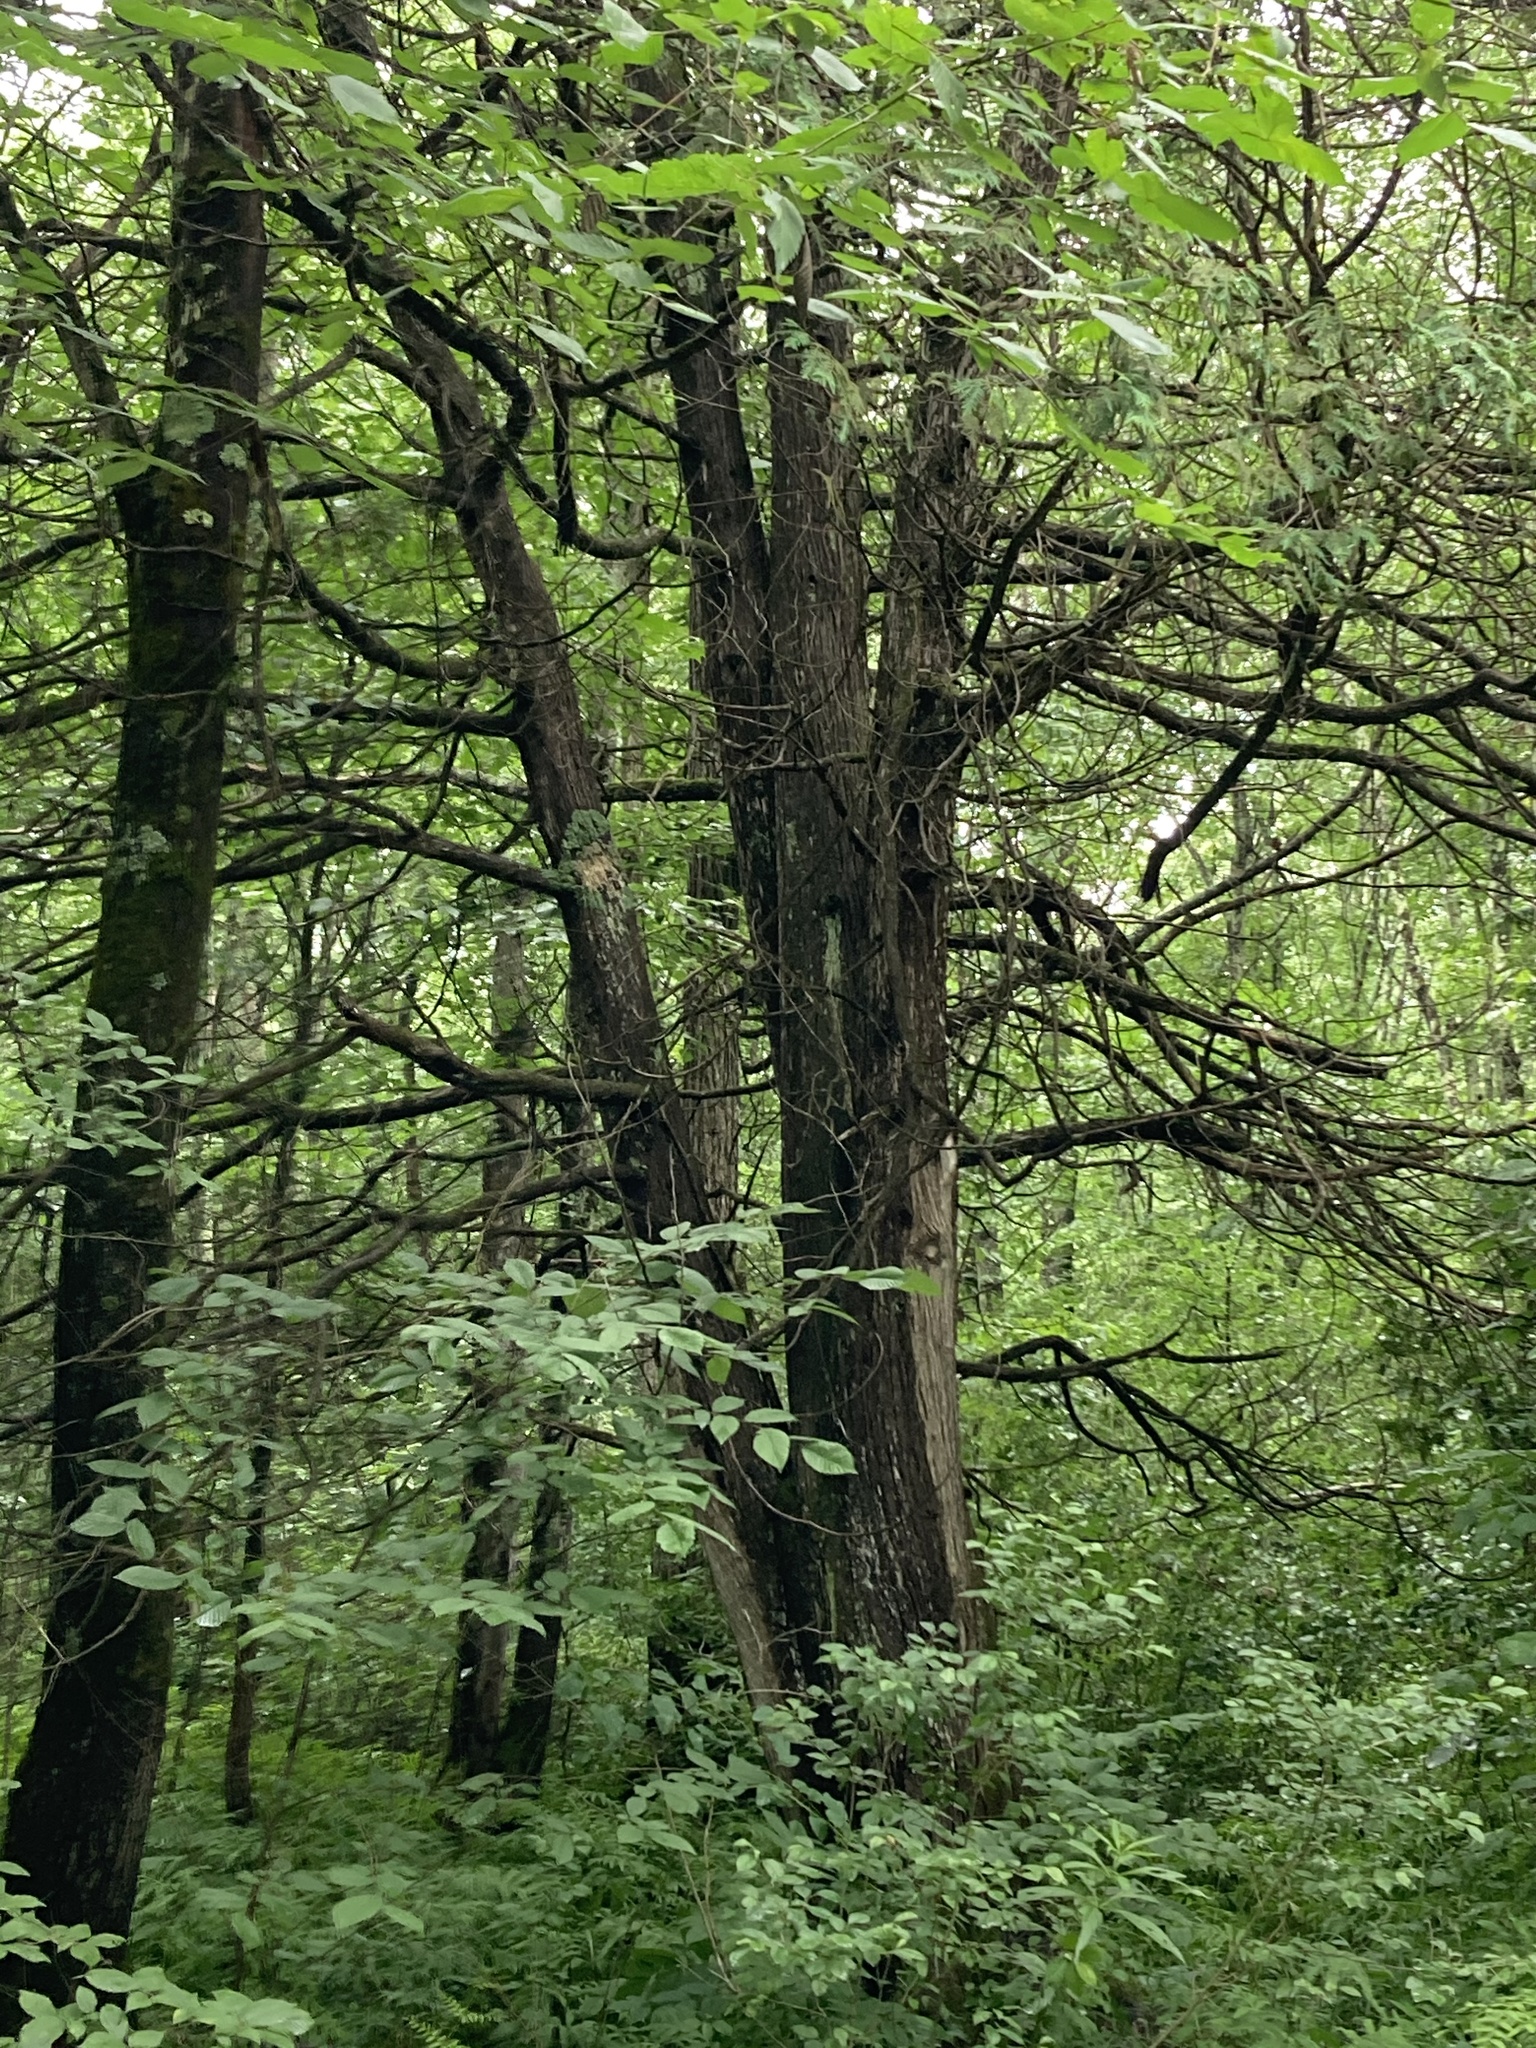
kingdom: Plantae
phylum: Tracheophyta
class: Pinopsida
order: Pinales
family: Cupressaceae
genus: Thuja
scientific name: Thuja occidentalis
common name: Northern white-cedar
